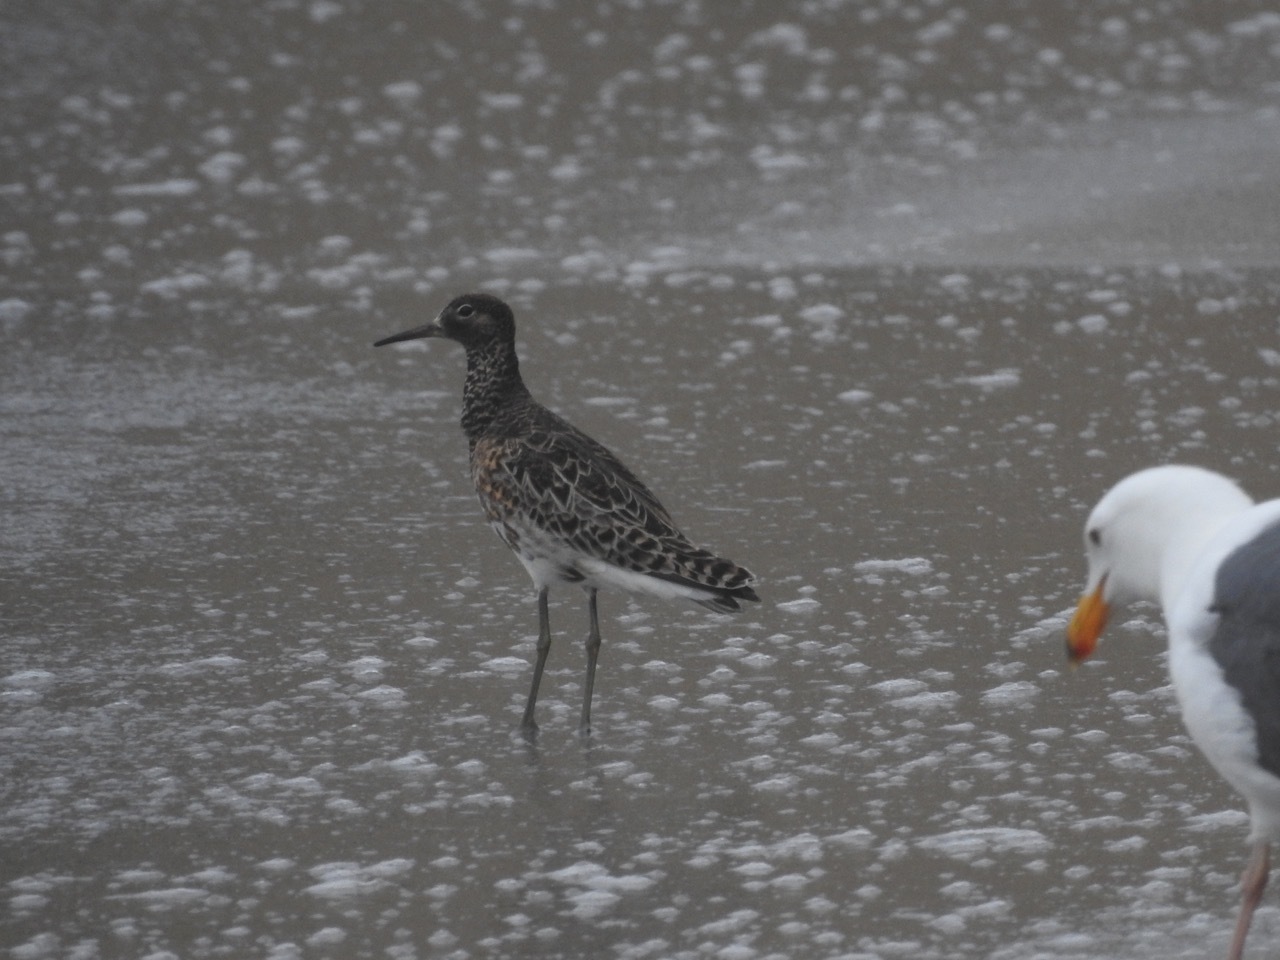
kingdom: Animalia
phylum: Chordata
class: Aves
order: Charadriiformes
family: Scolopacidae
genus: Calidris
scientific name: Calidris pugnax
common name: Ruff
